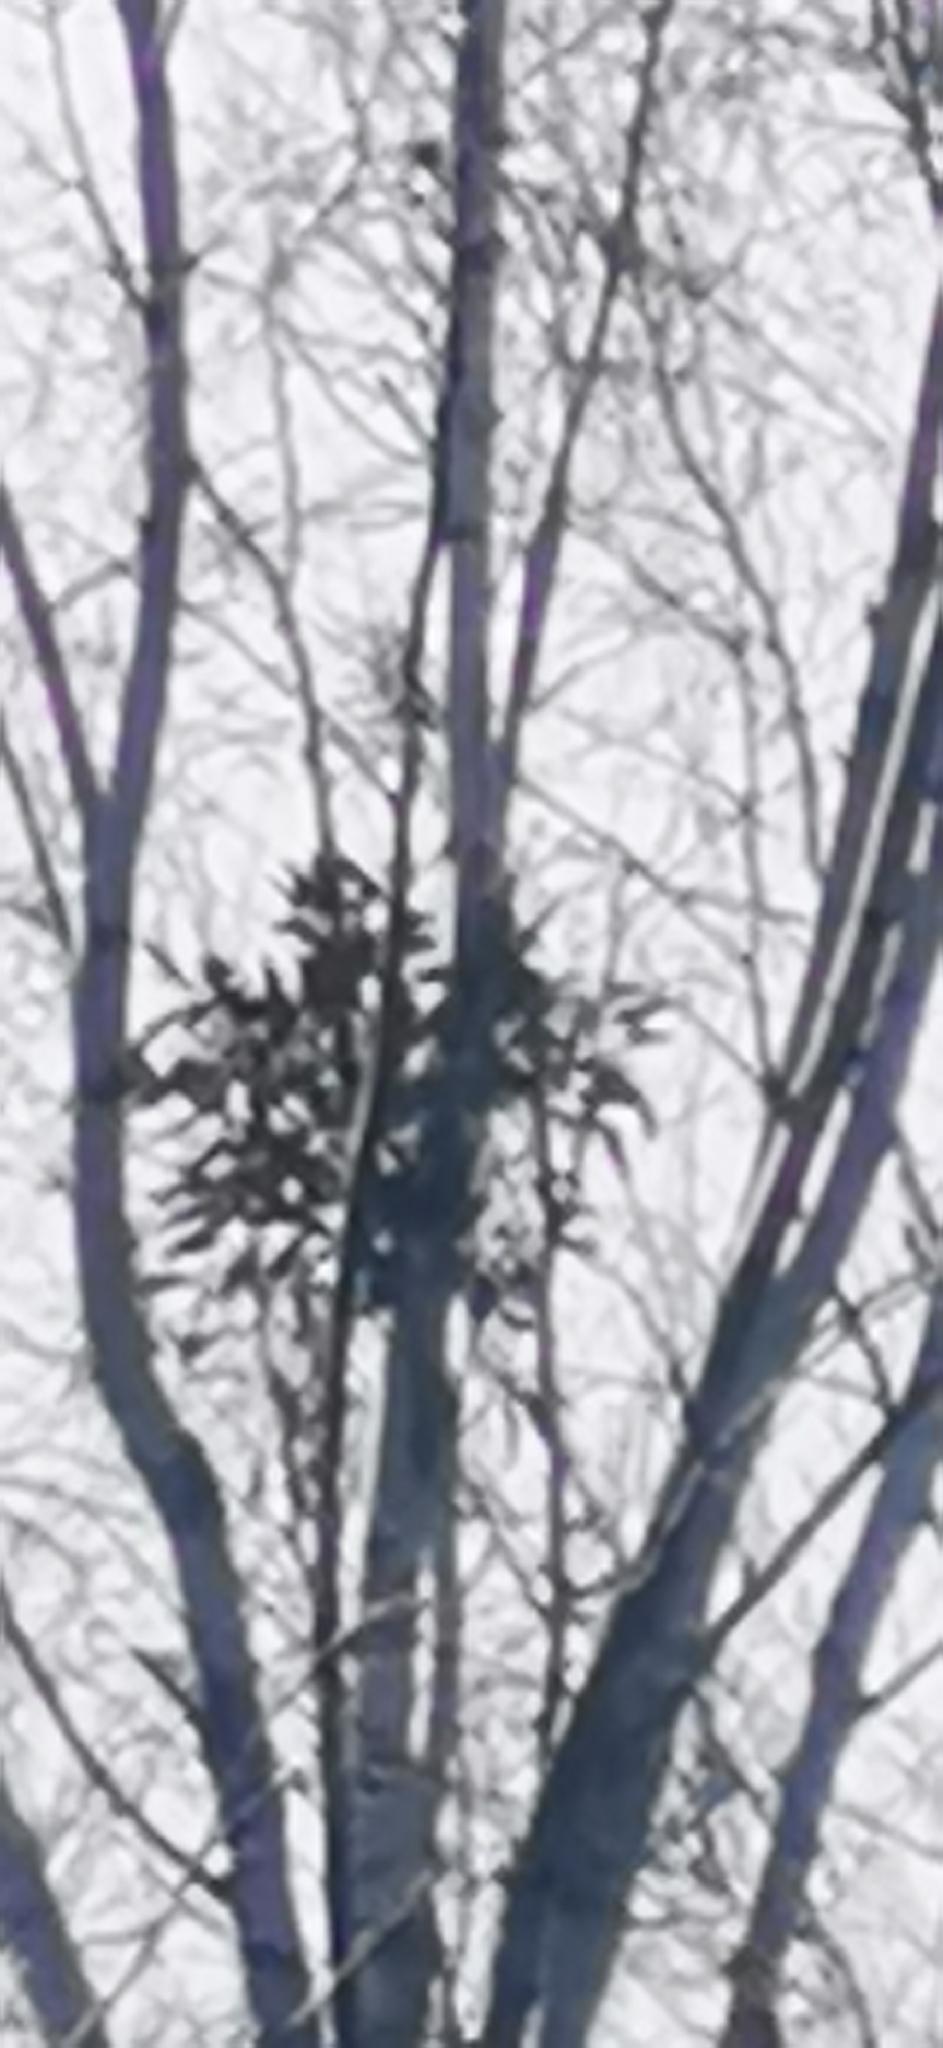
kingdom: Plantae
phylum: Tracheophyta
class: Magnoliopsida
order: Santalales
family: Viscaceae
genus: Viscum
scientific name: Viscum album
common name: Mistletoe
